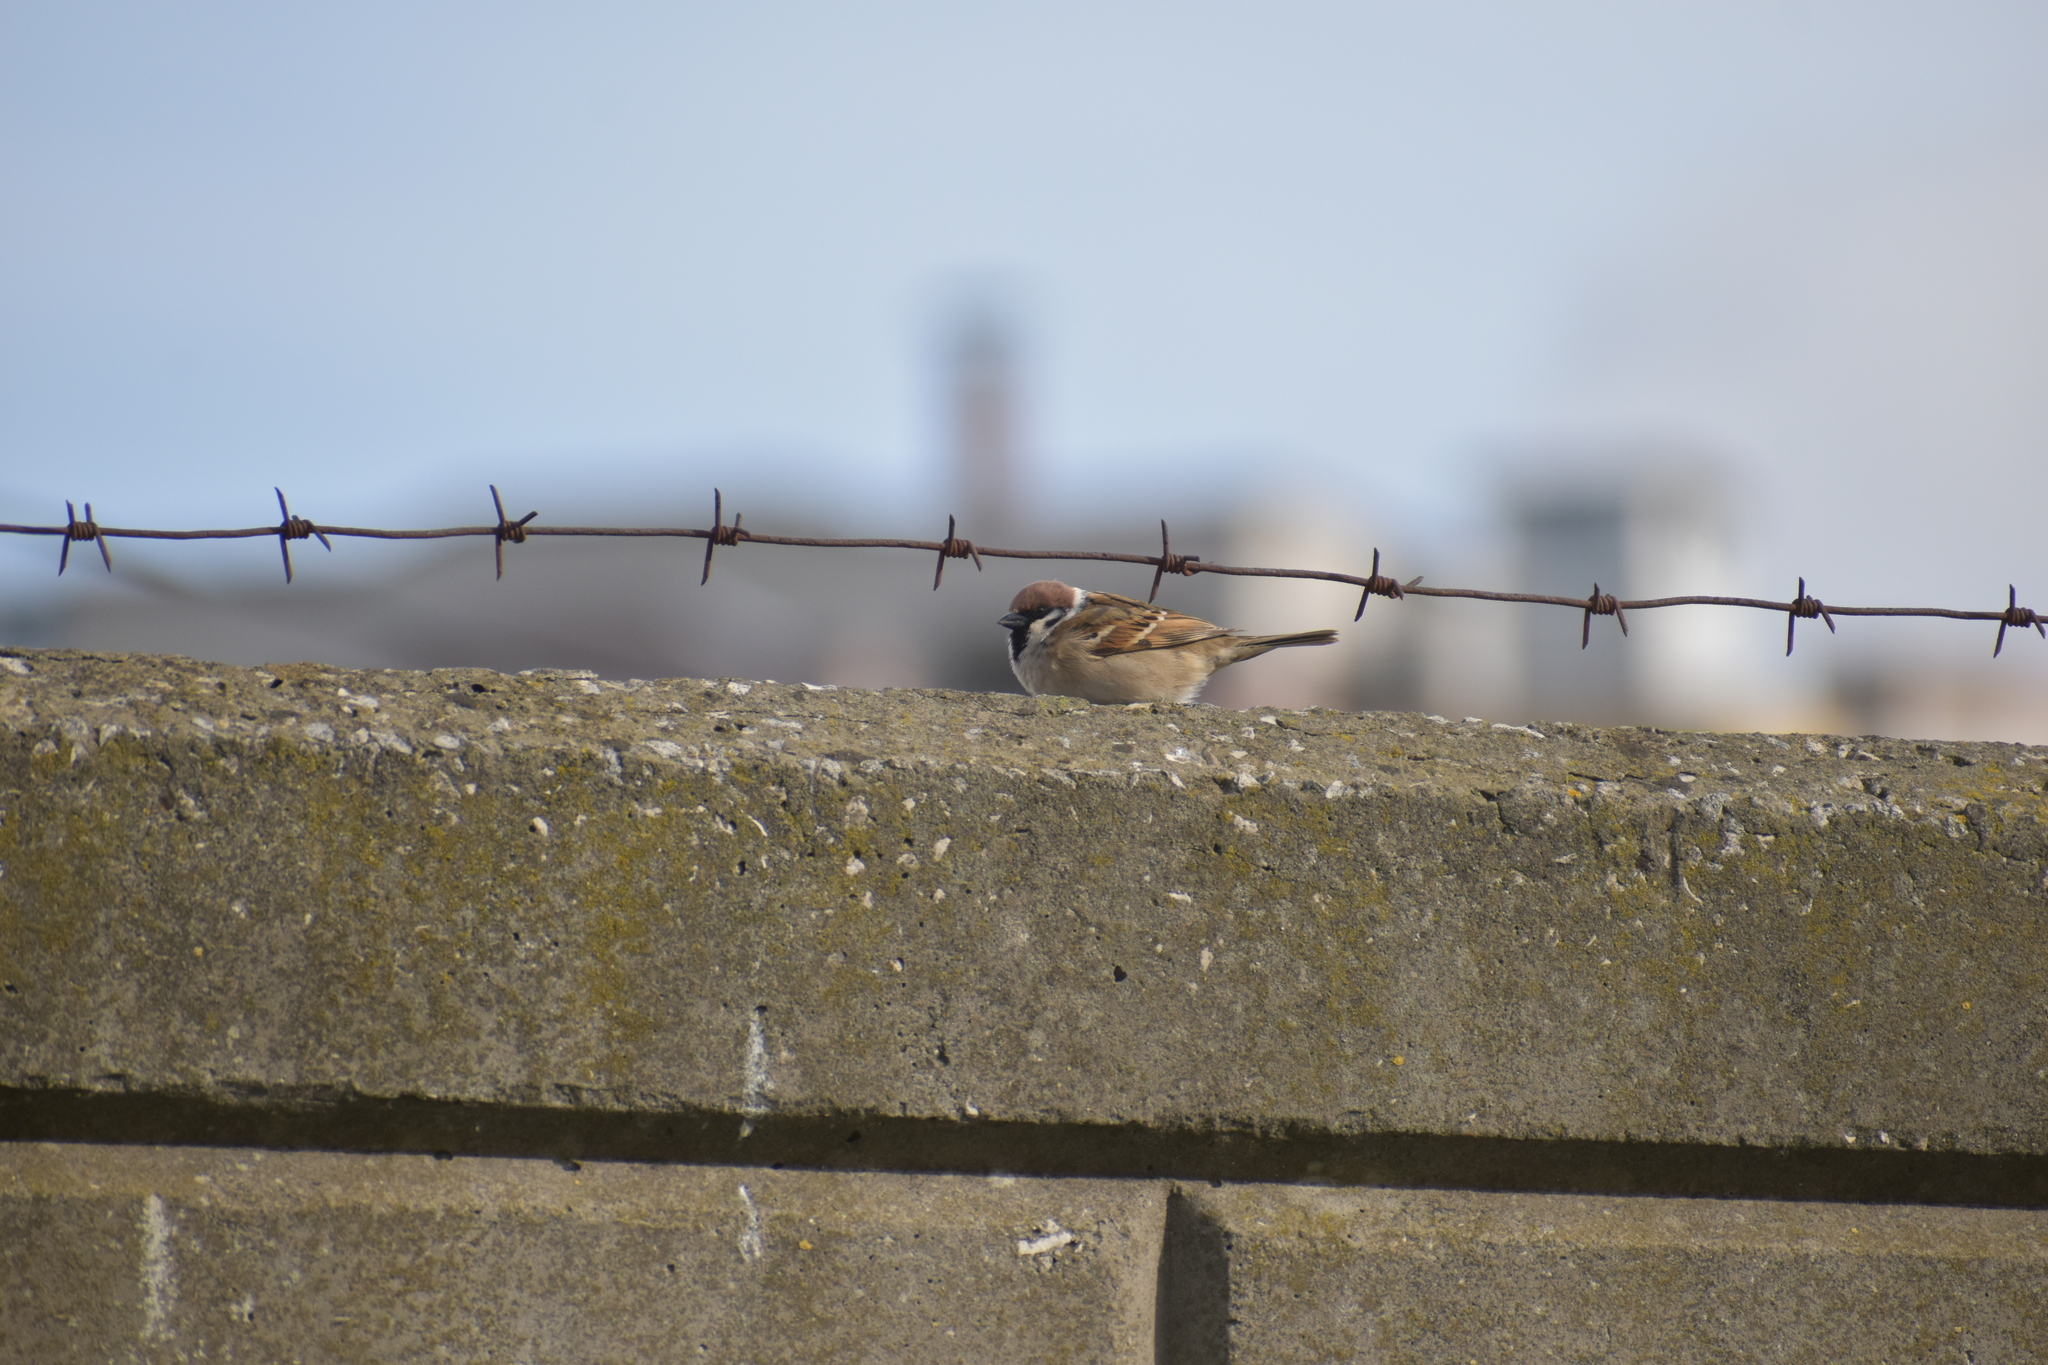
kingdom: Animalia
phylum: Chordata
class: Aves
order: Passeriformes
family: Passeridae
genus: Passer
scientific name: Passer montanus
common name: Eurasian tree sparrow
